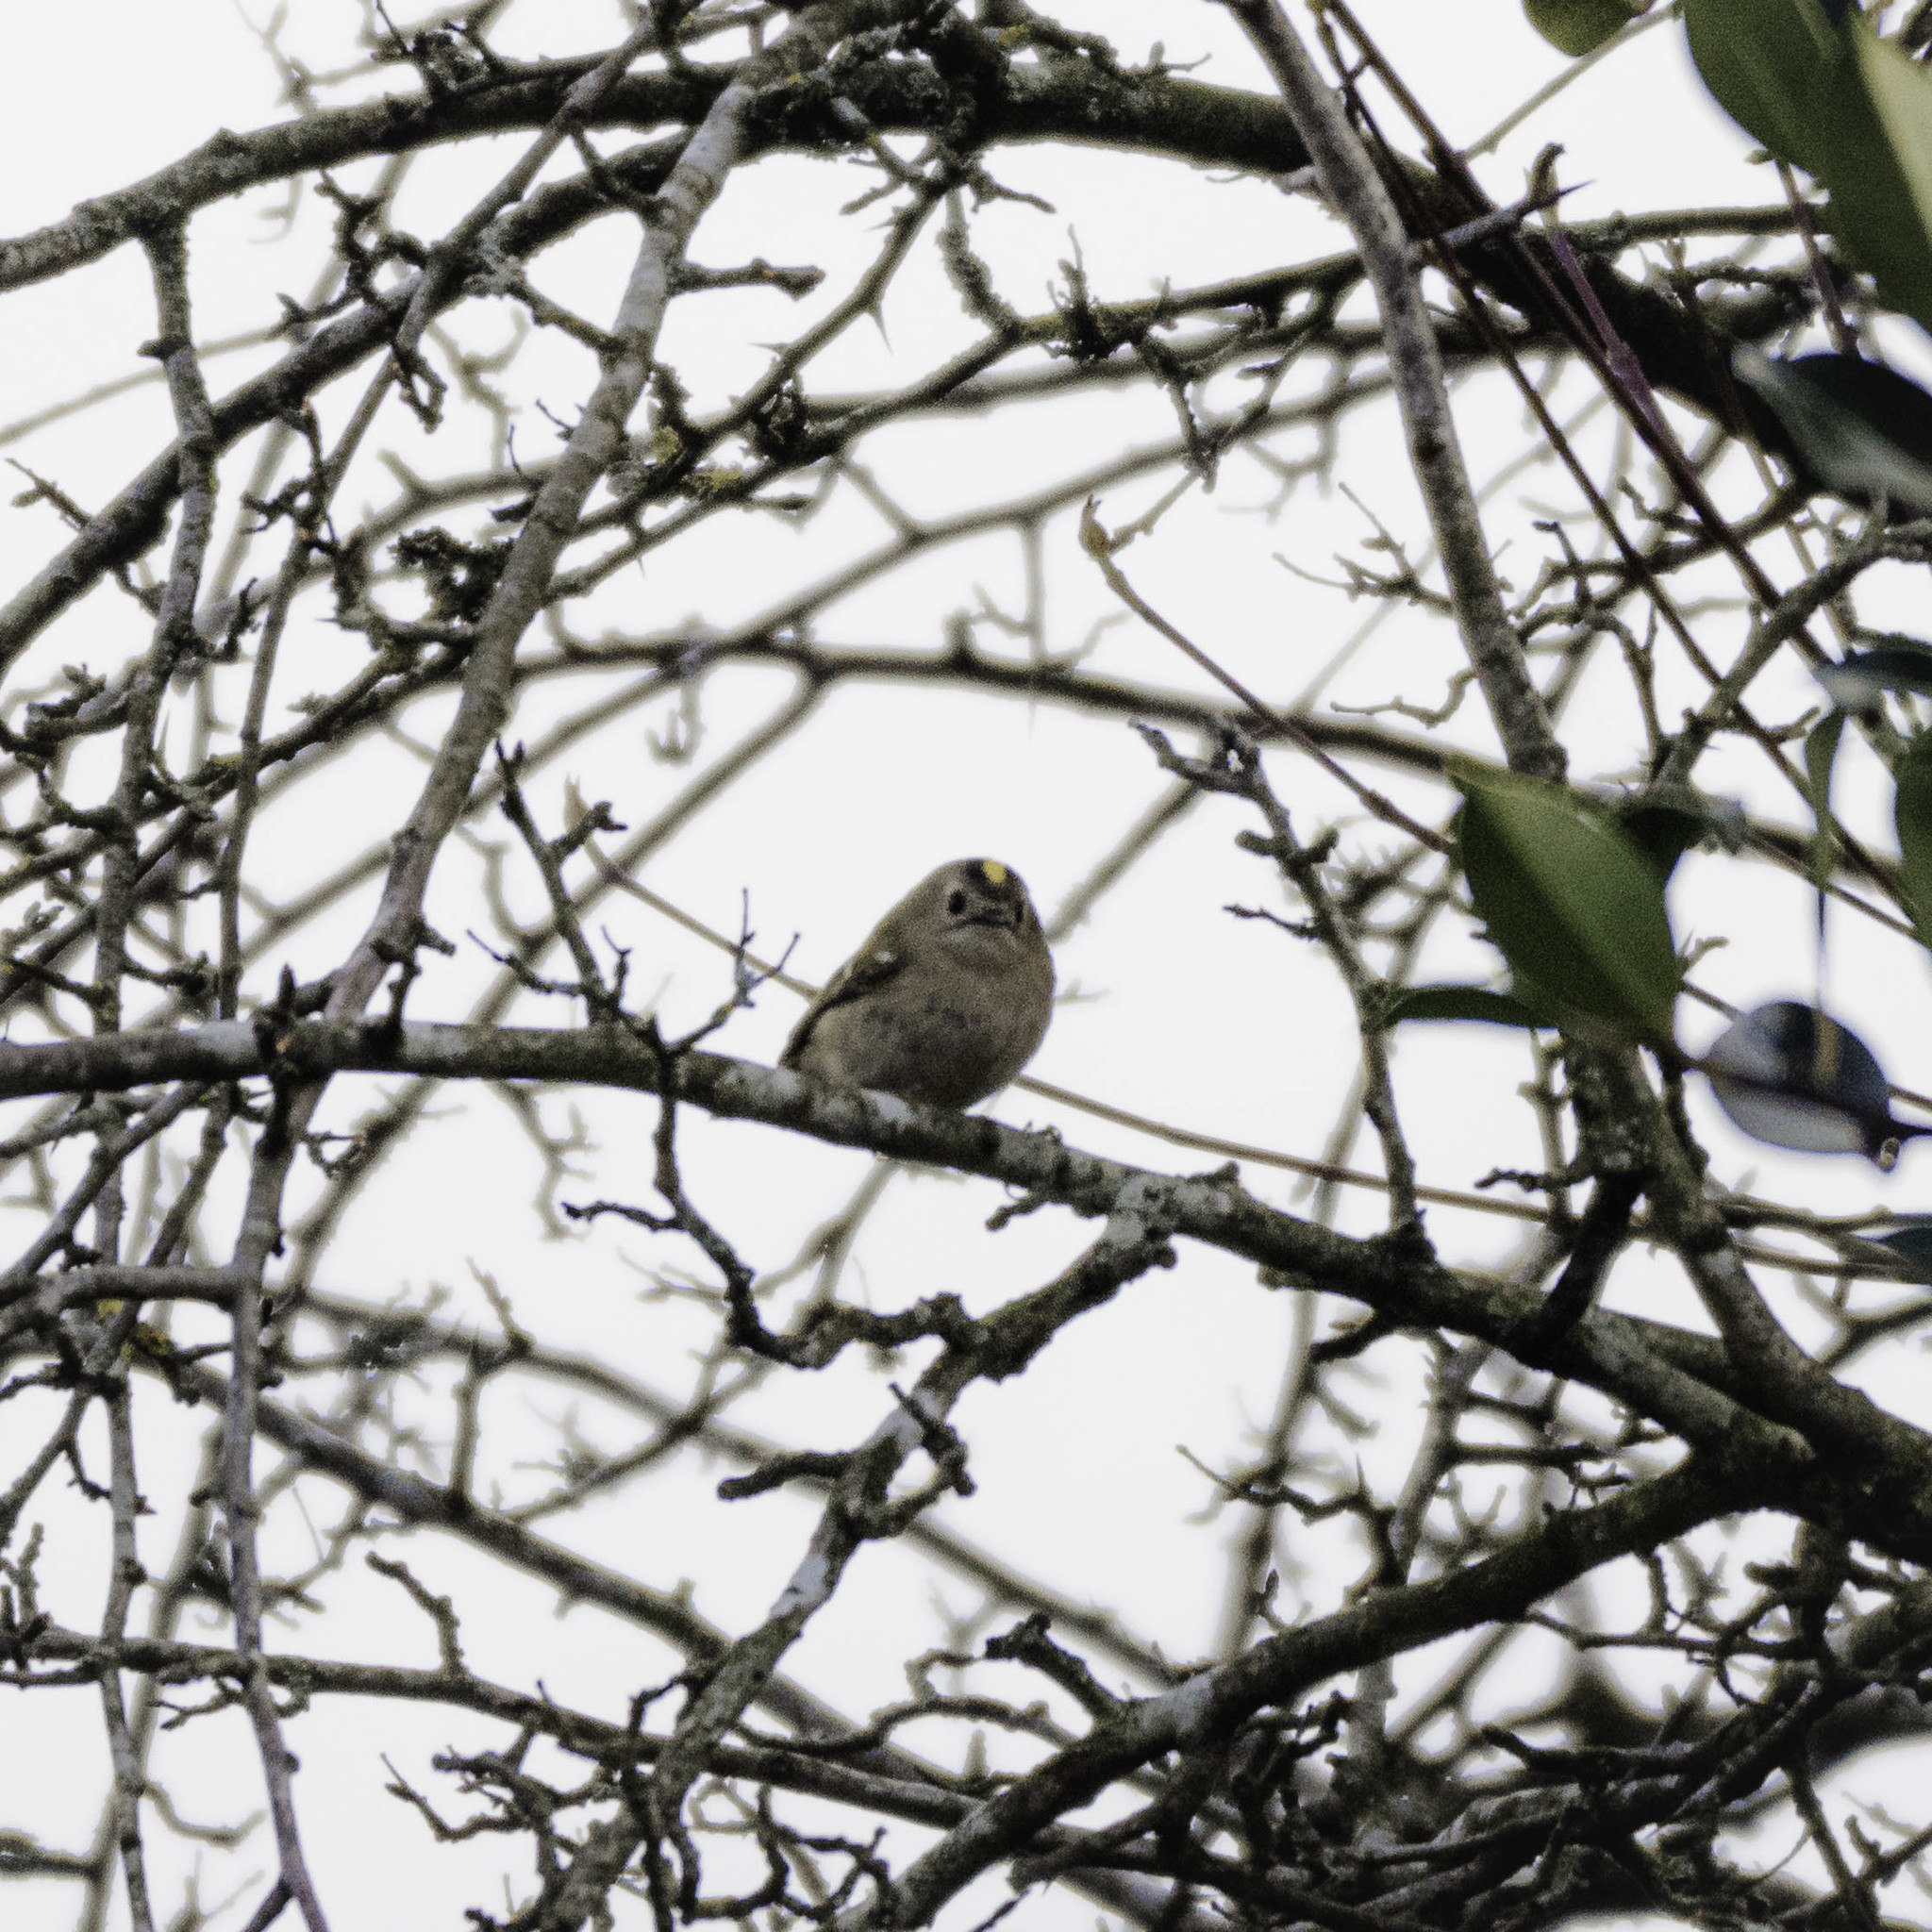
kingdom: Animalia
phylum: Chordata
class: Aves
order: Passeriformes
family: Regulidae
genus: Regulus
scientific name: Regulus regulus
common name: Goldcrest
